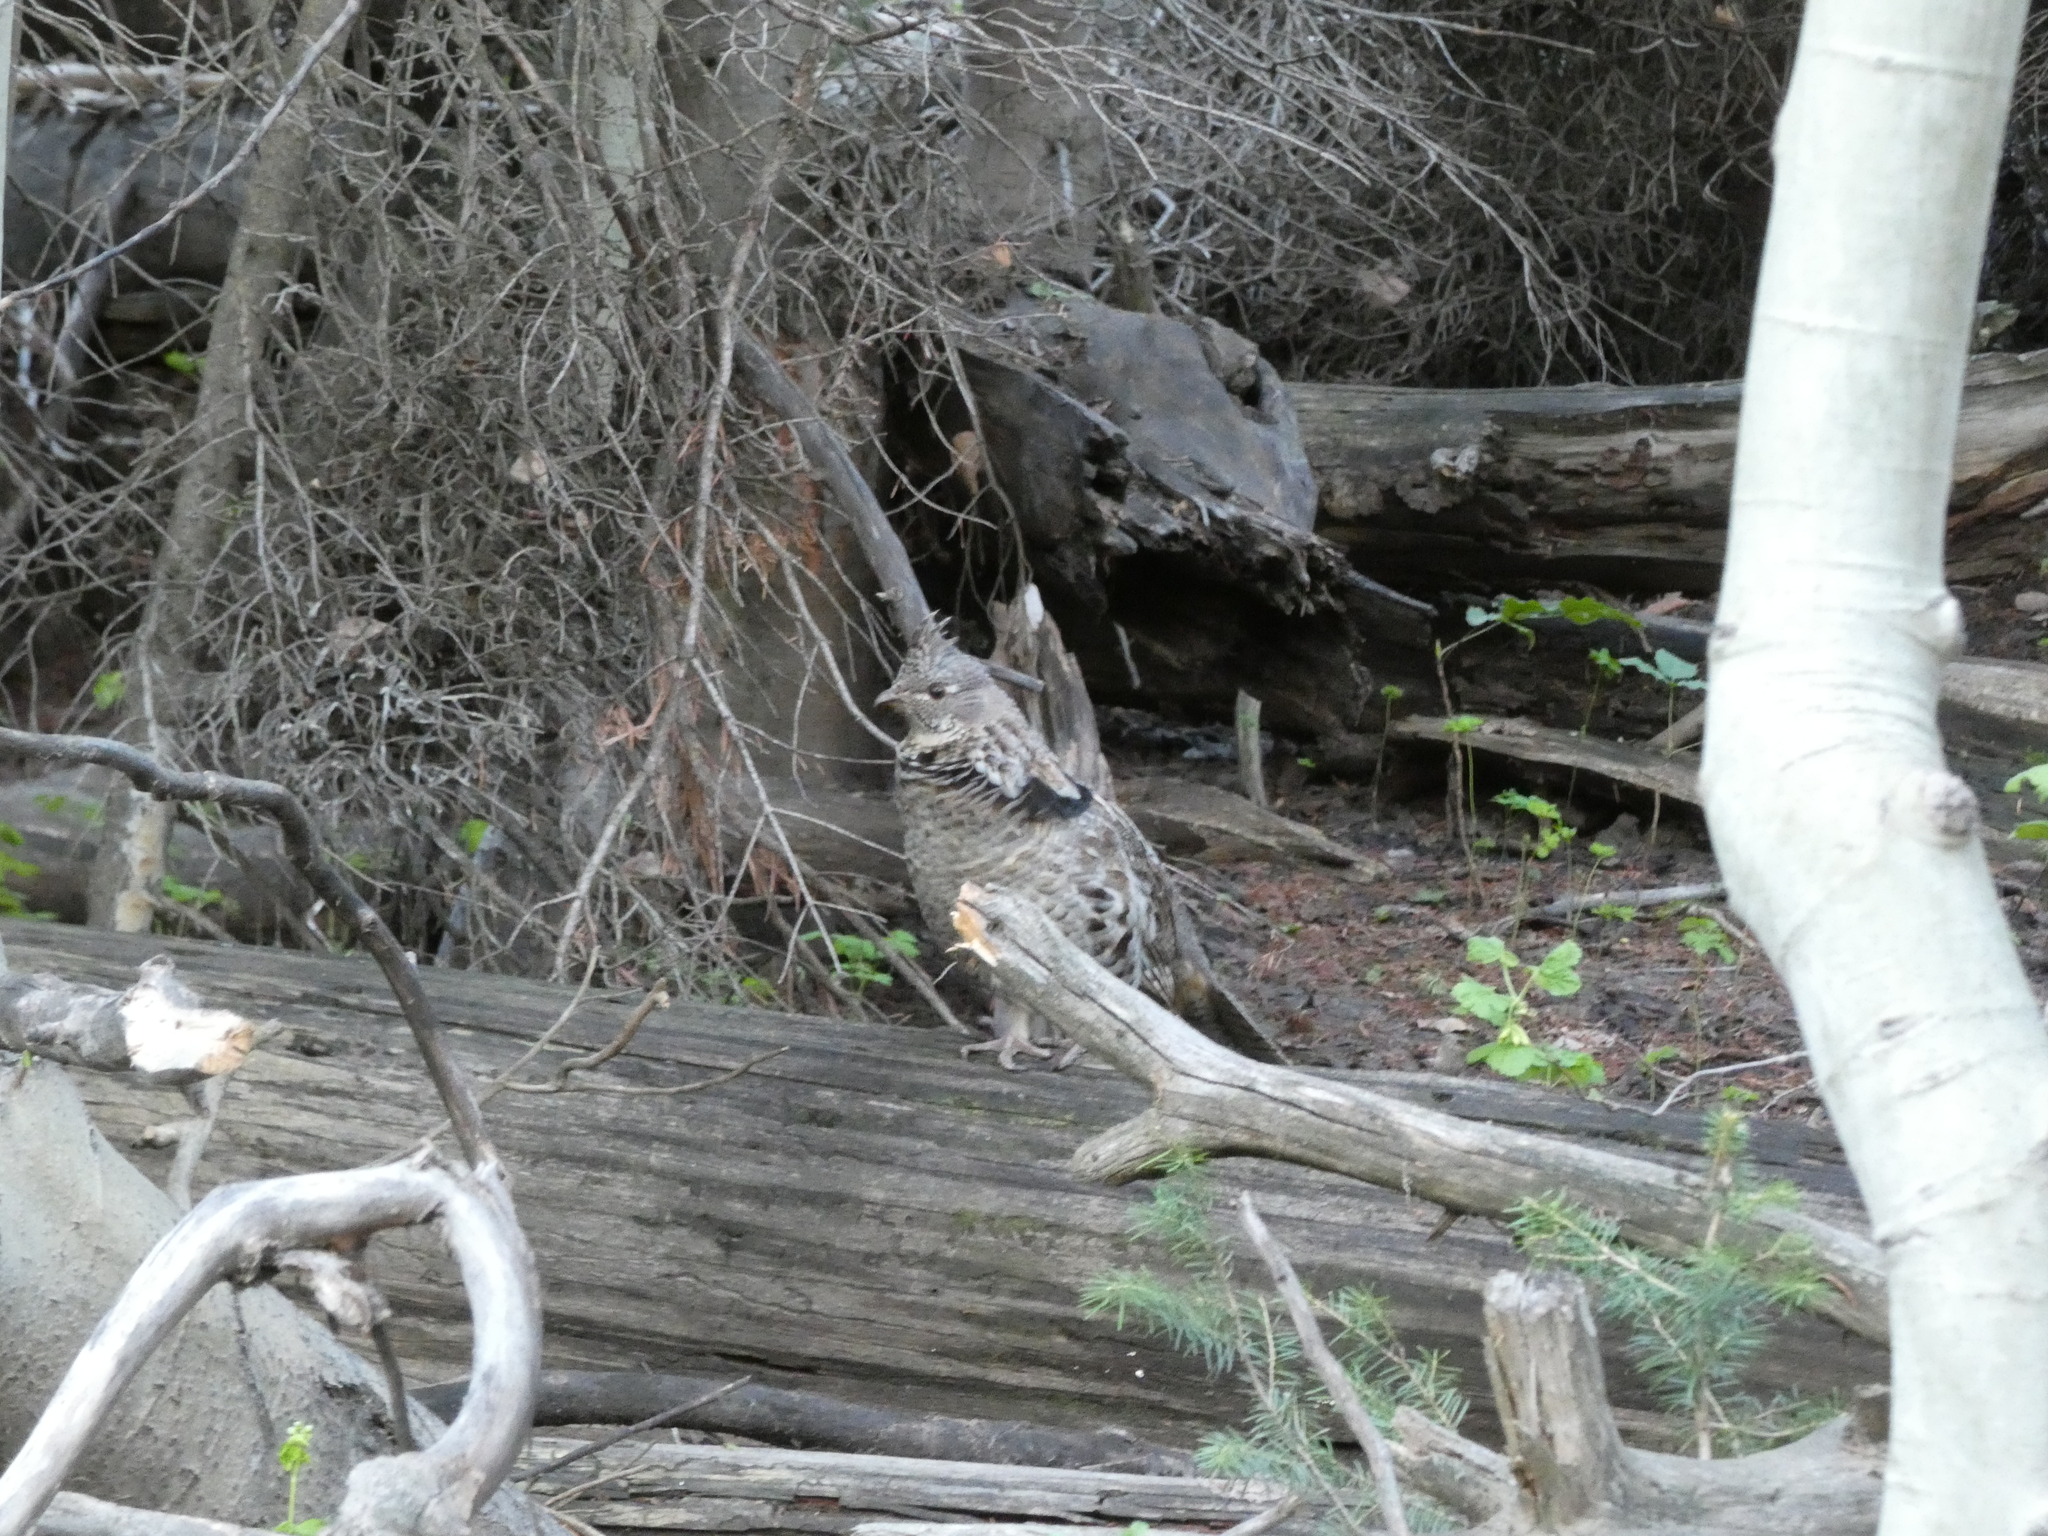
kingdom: Animalia
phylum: Chordata
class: Aves
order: Galliformes
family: Phasianidae
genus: Bonasa
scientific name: Bonasa umbellus
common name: Ruffed grouse
